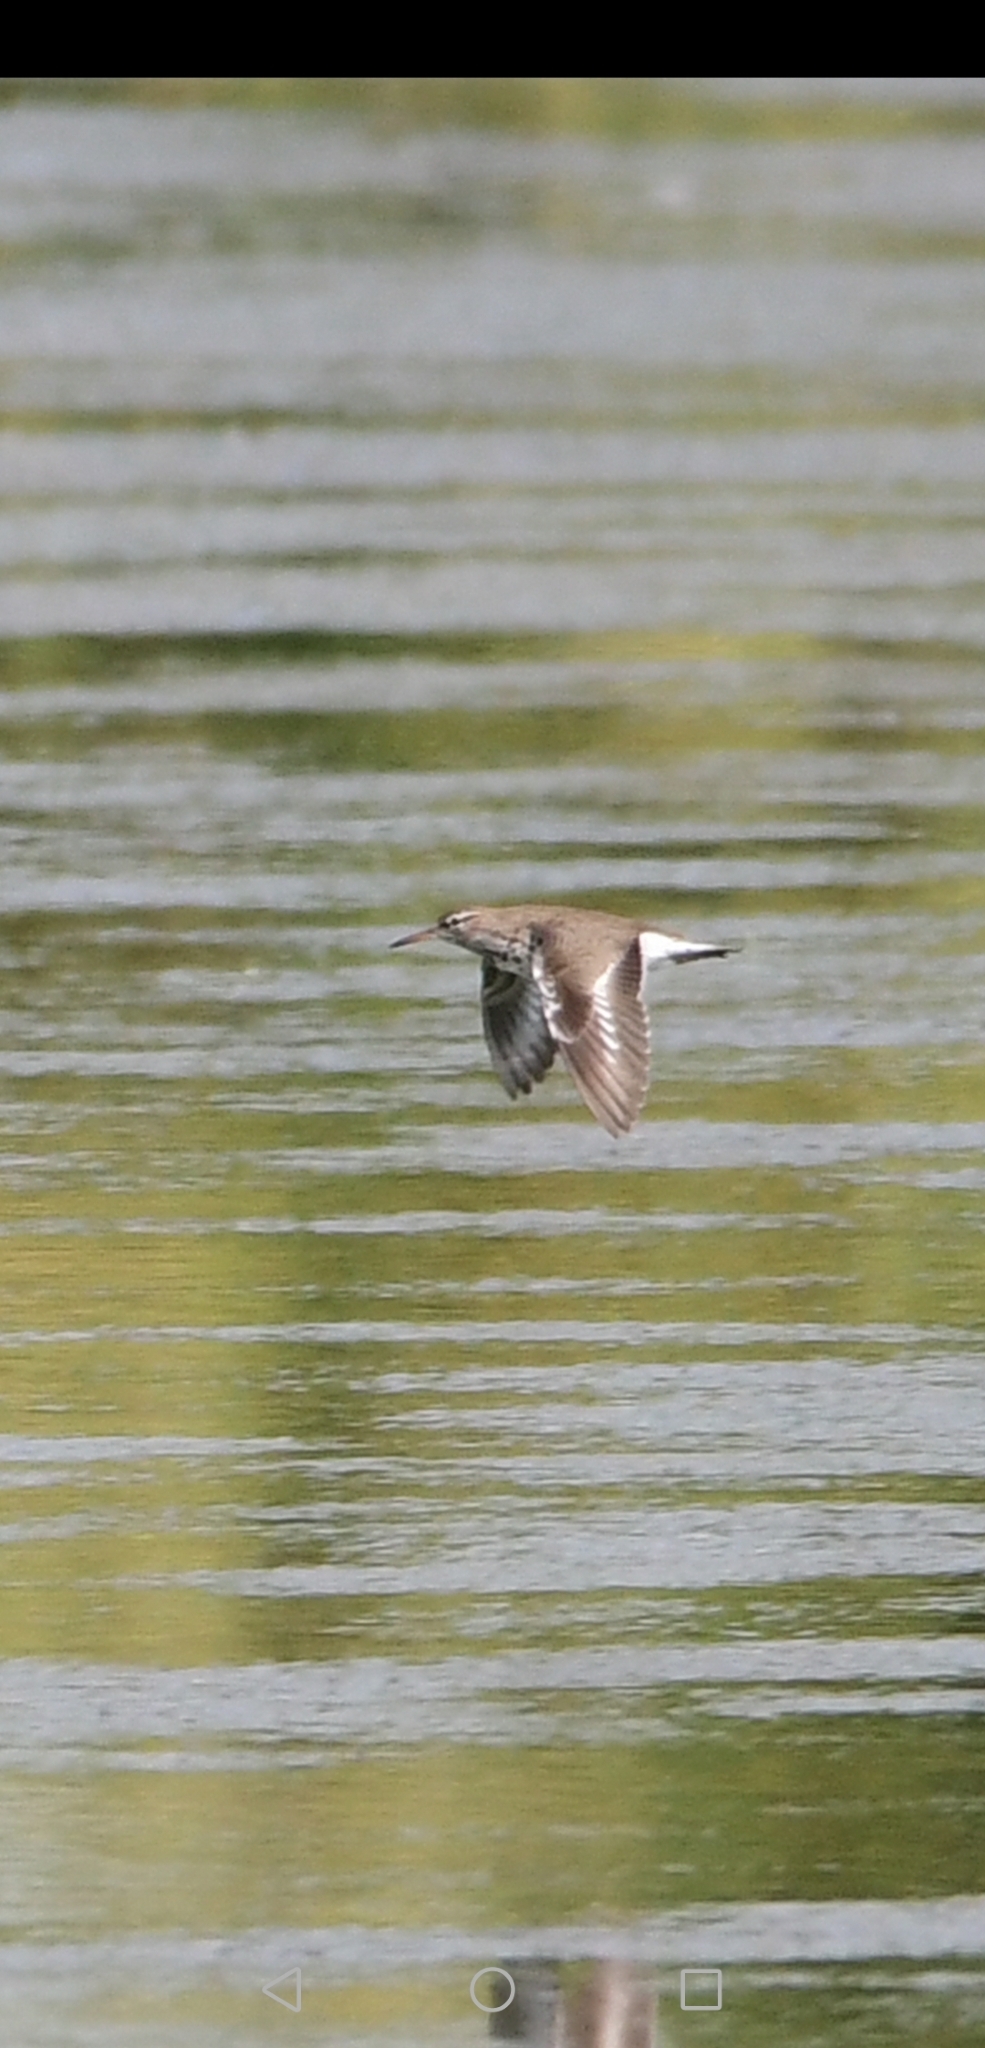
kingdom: Animalia
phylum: Chordata
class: Aves
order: Charadriiformes
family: Scolopacidae
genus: Actitis
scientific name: Actitis macularius
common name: Spotted sandpiper
